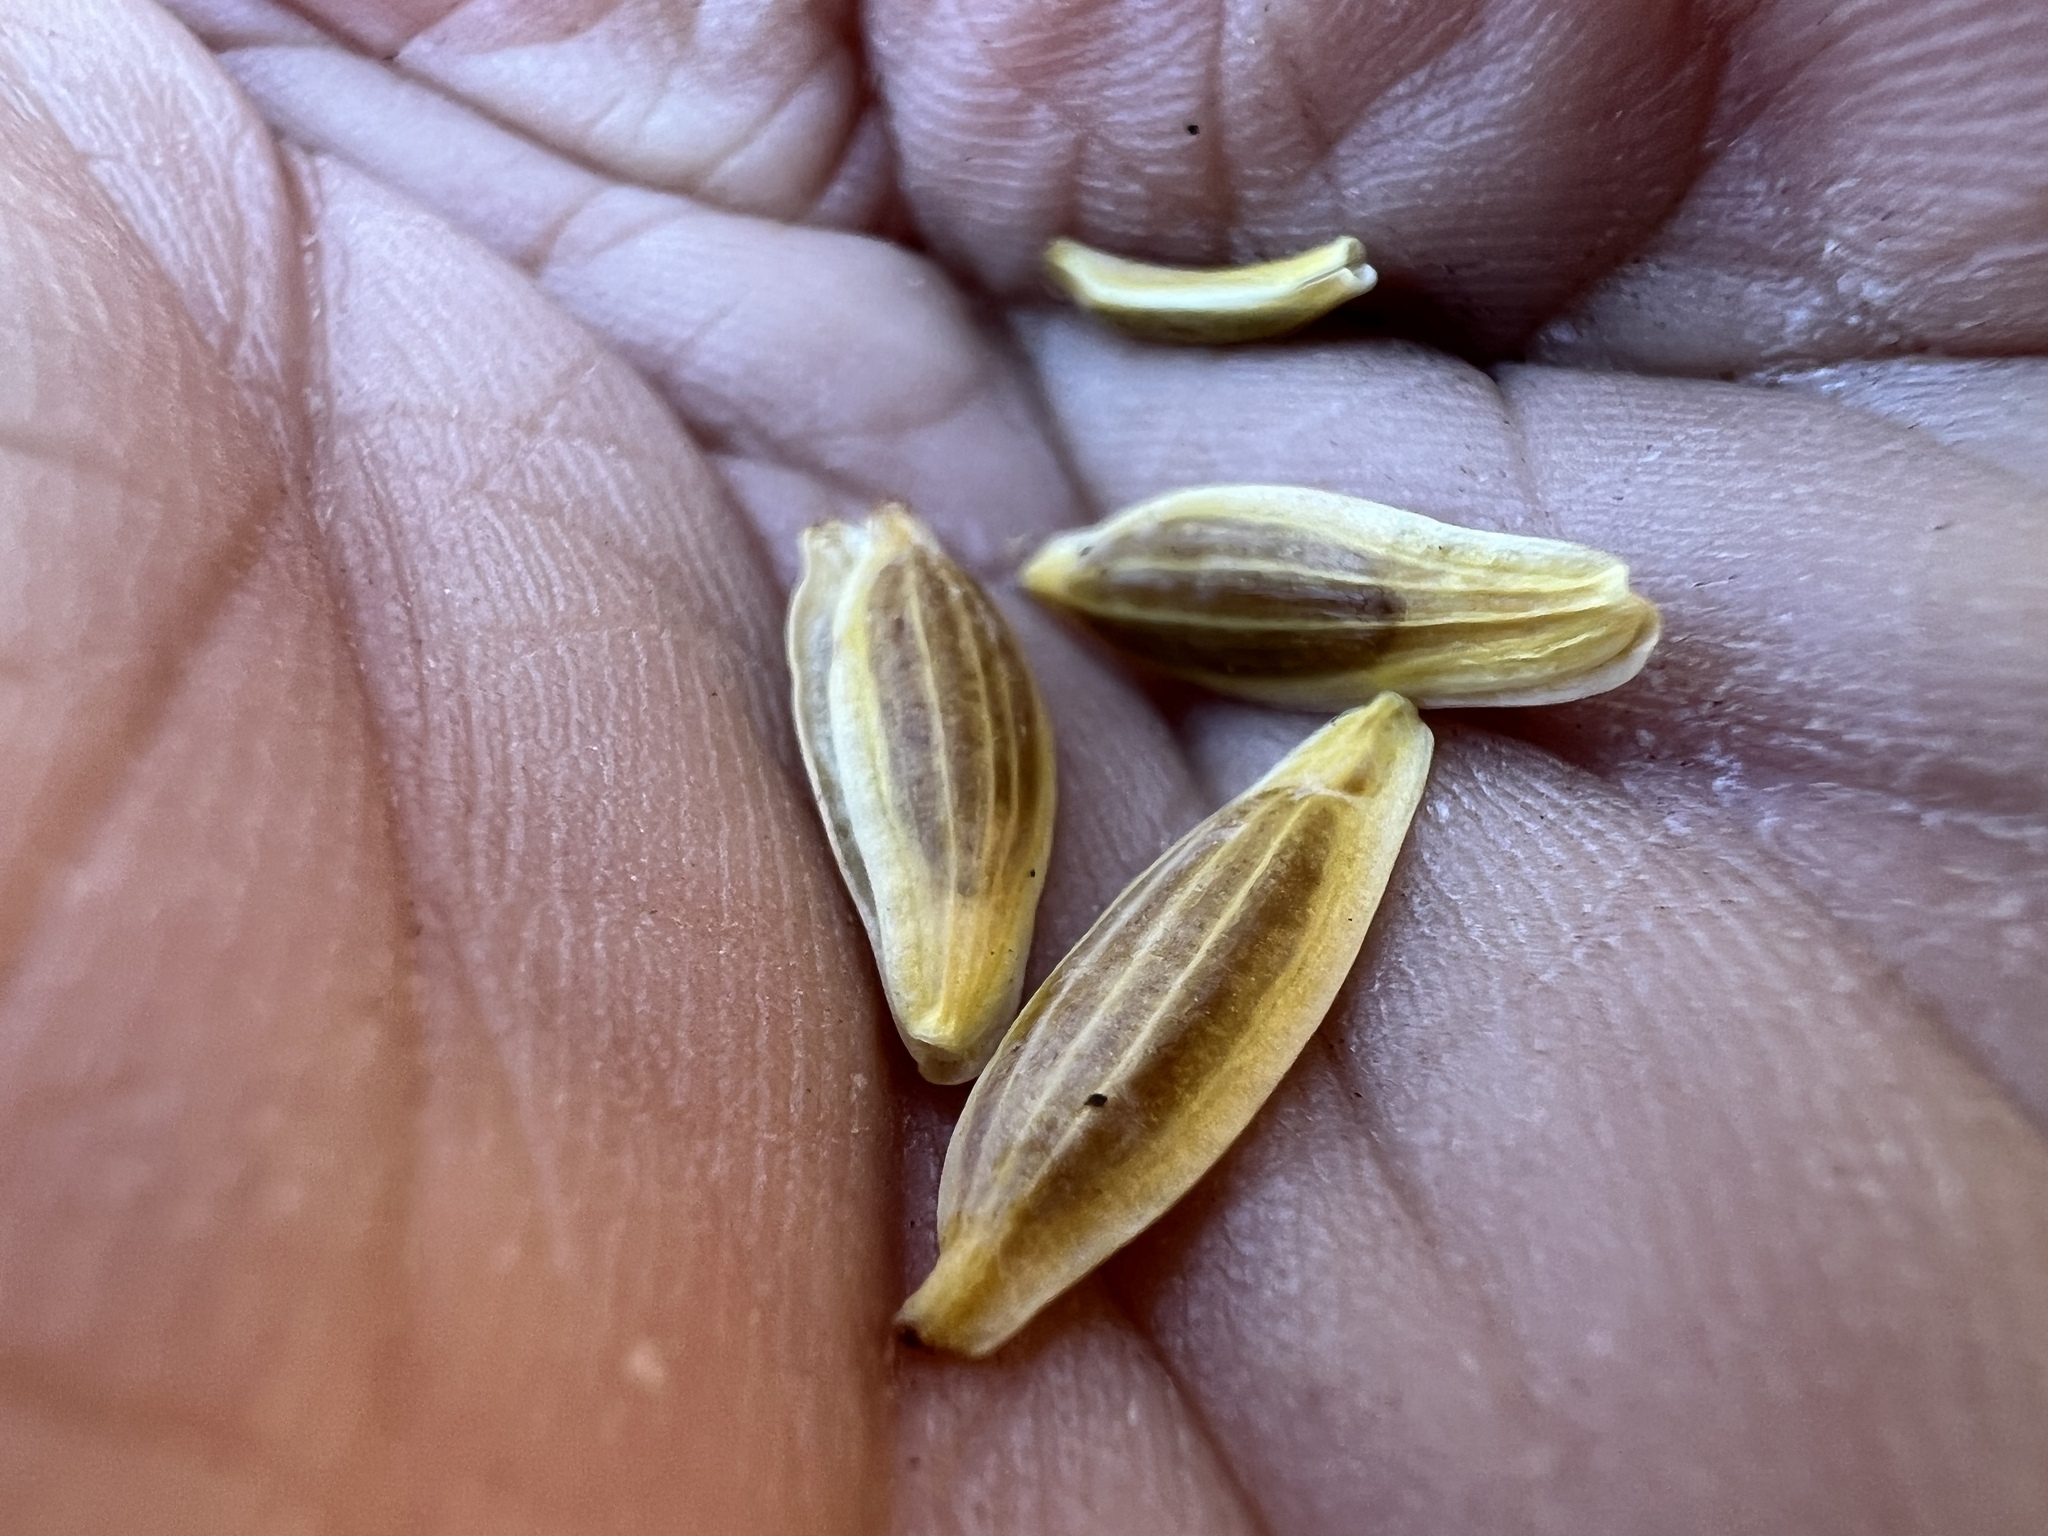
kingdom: Plantae
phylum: Tracheophyta
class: Magnoliopsida
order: Apiales
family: Apiaceae
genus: Lomatium
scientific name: Lomatium nudicaule
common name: Pestle lomatium
